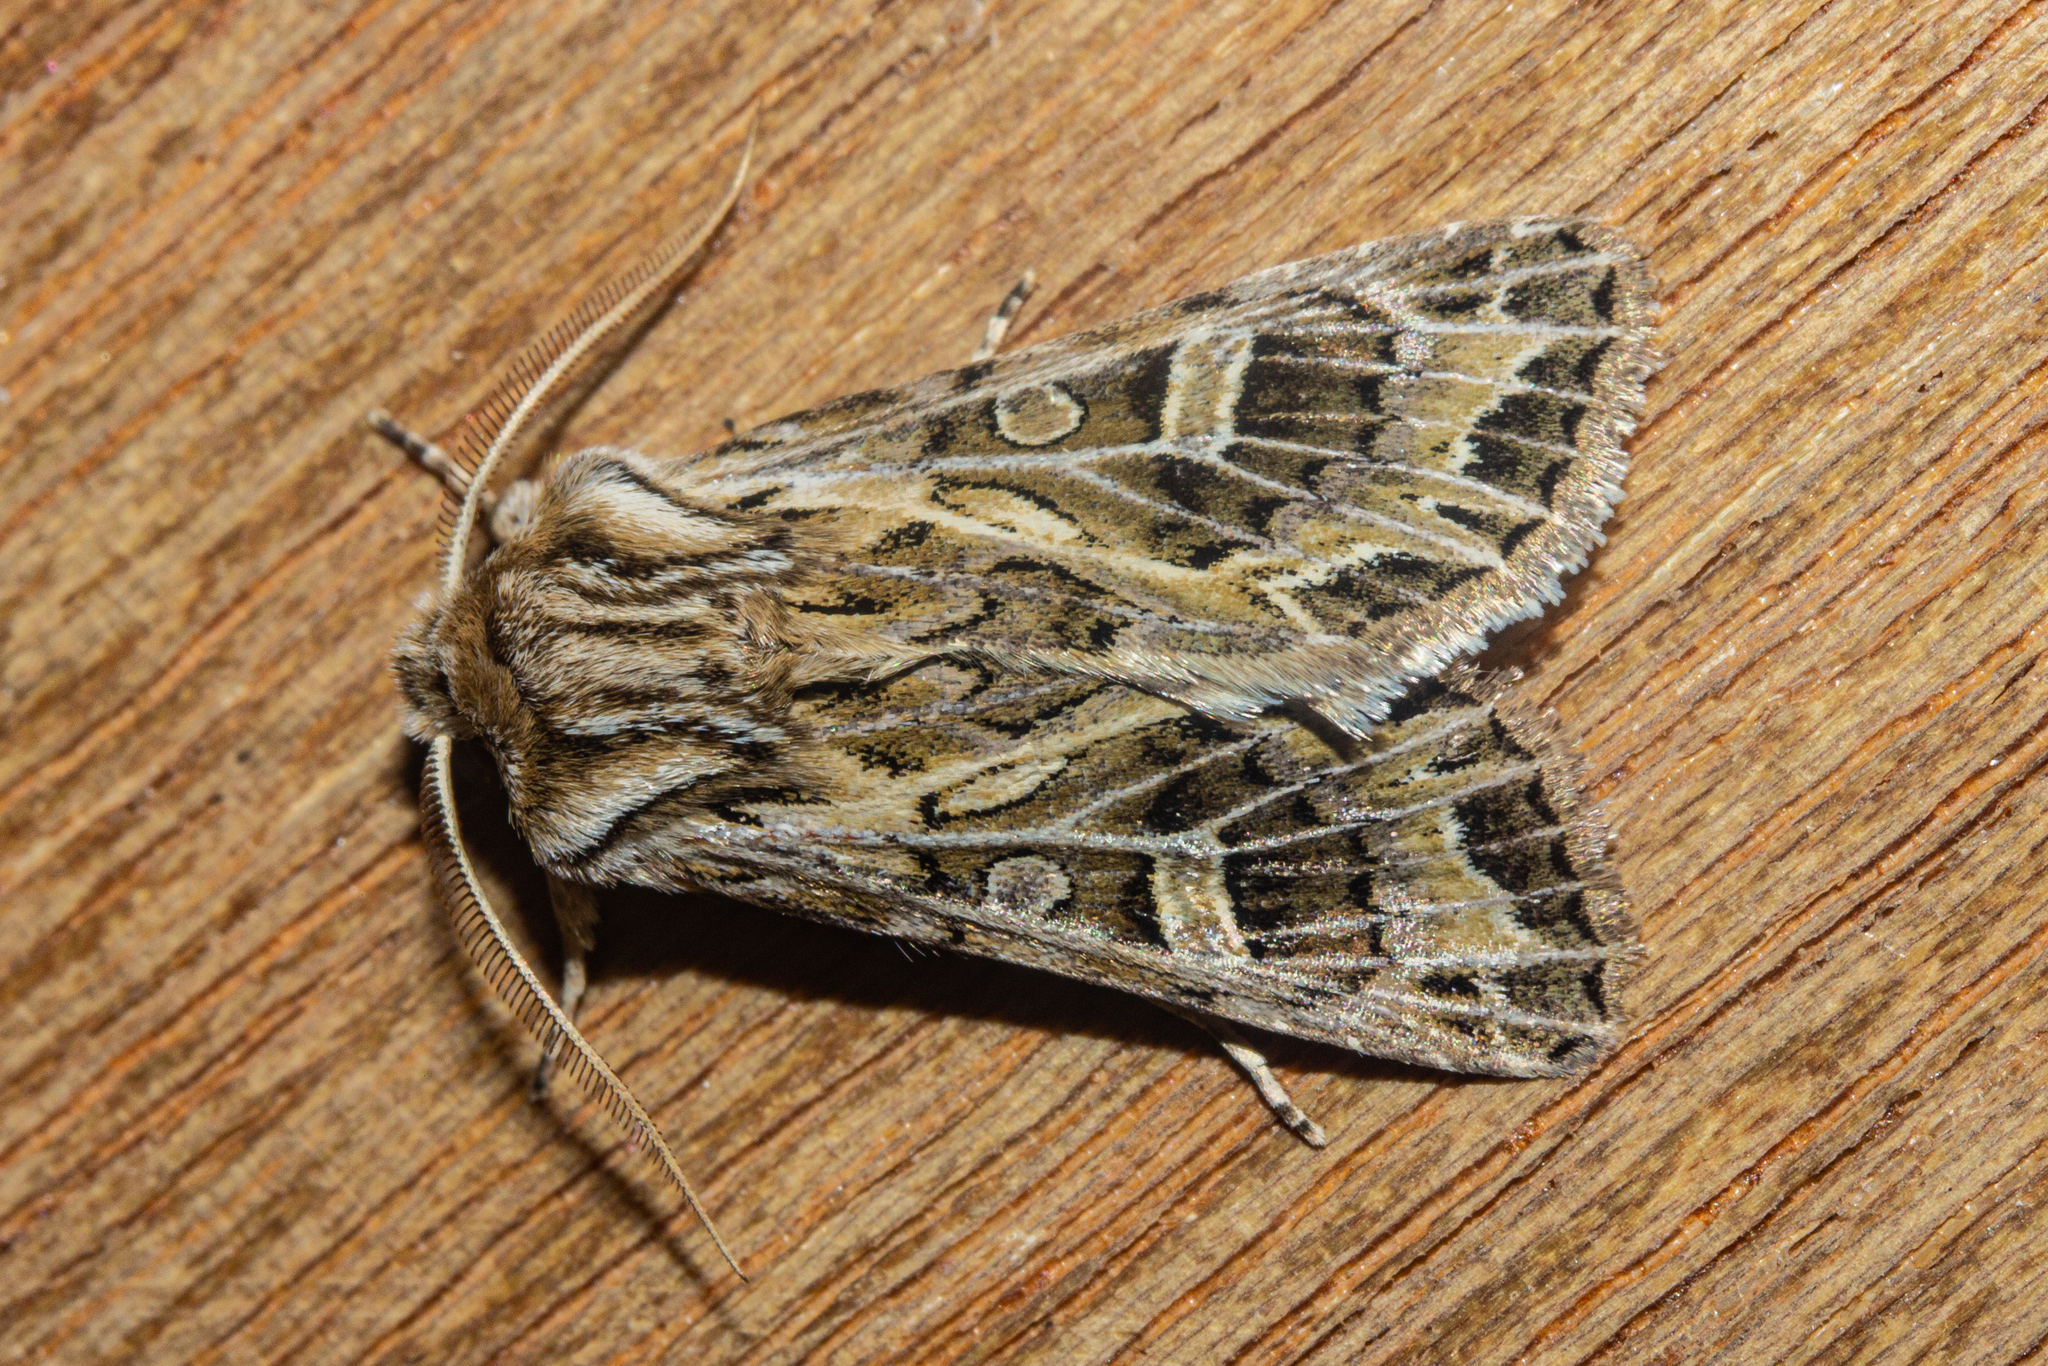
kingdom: Animalia
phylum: Arthropoda
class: Insecta
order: Lepidoptera
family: Noctuidae
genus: Ichneutica
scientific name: Ichneutica
